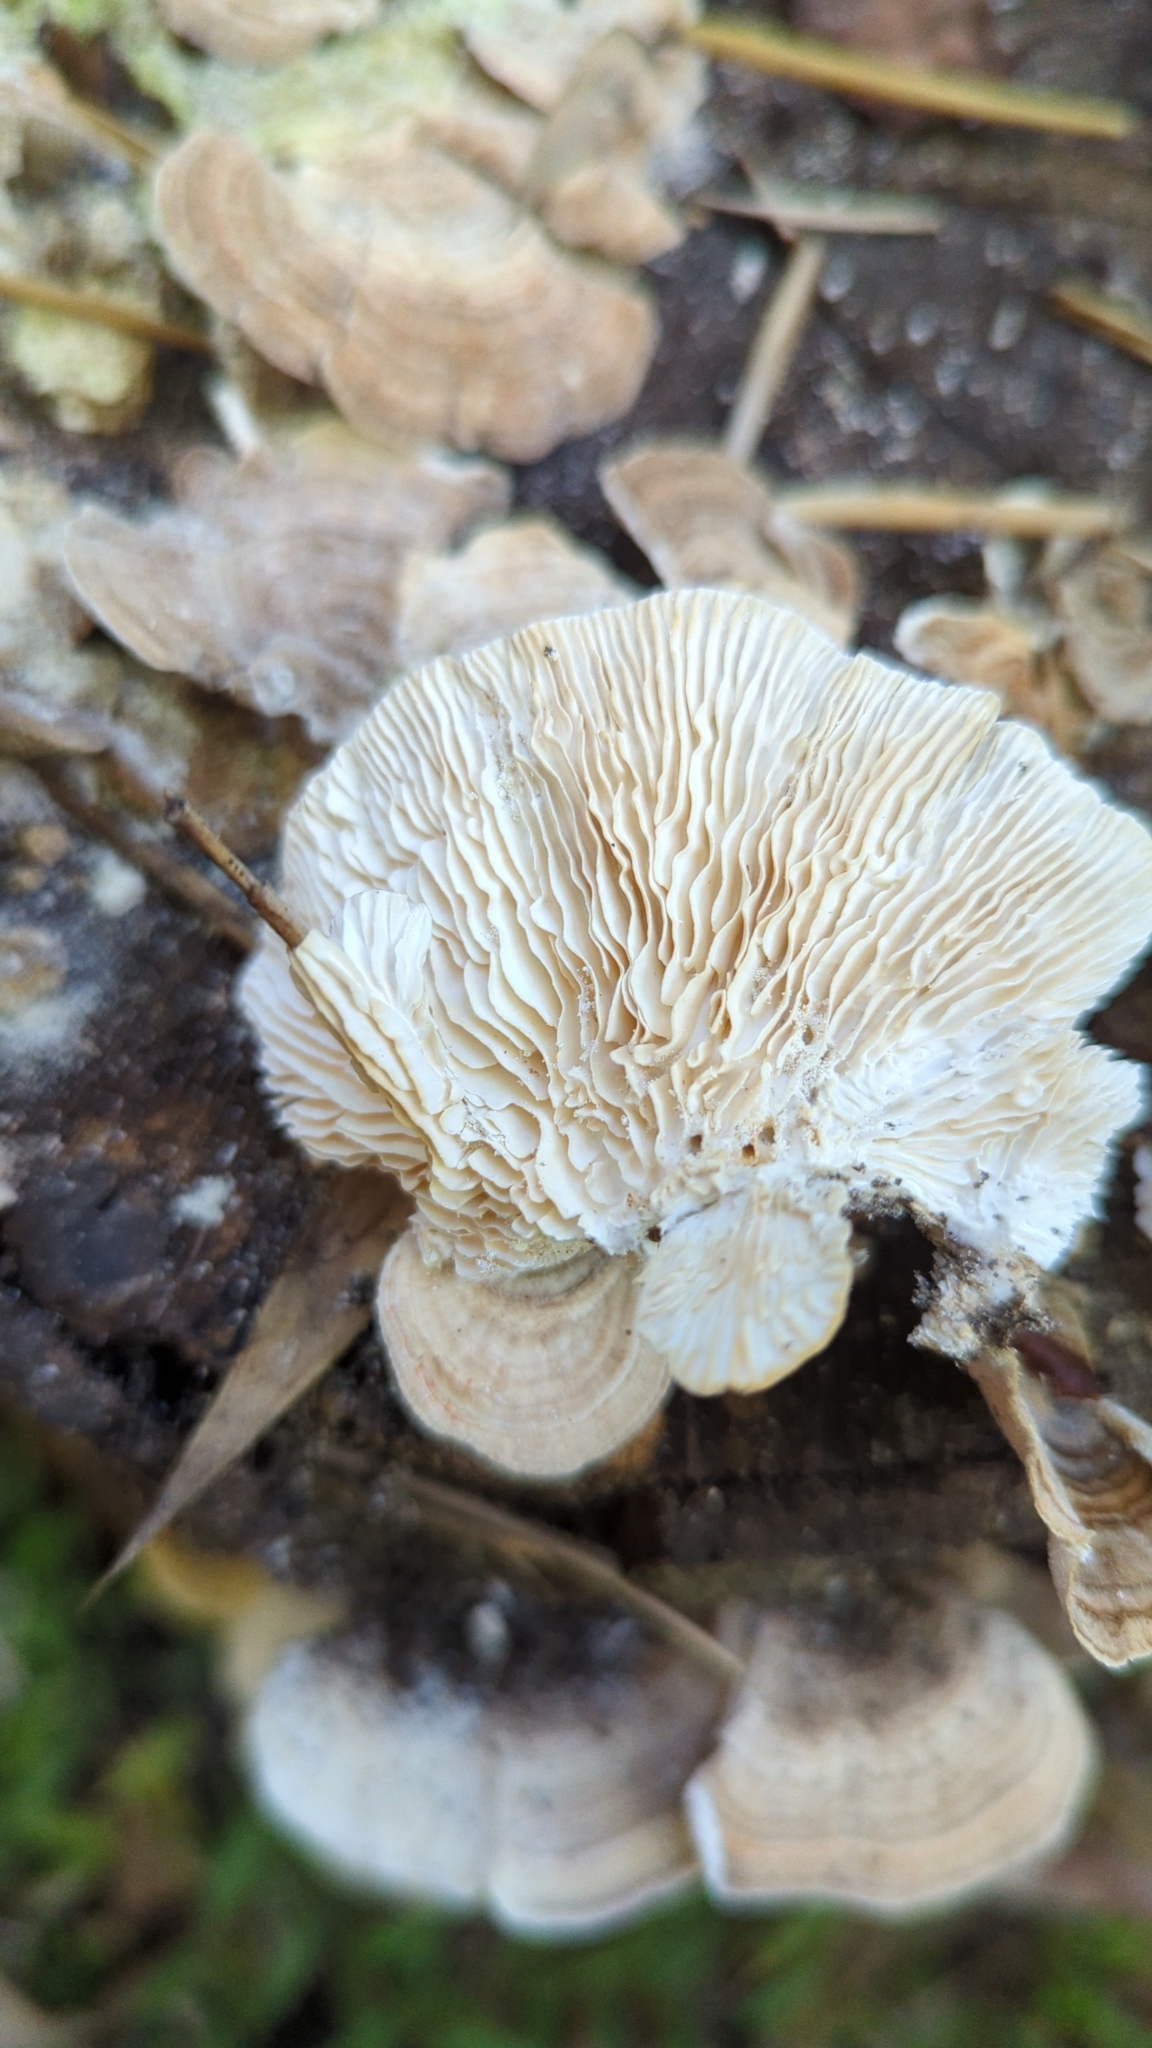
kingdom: Fungi
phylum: Basidiomycota
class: Agaricomycetes
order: Polyporales
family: Polyporaceae
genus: Lenzites
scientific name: Lenzites betulinus
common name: Birch mazegill
